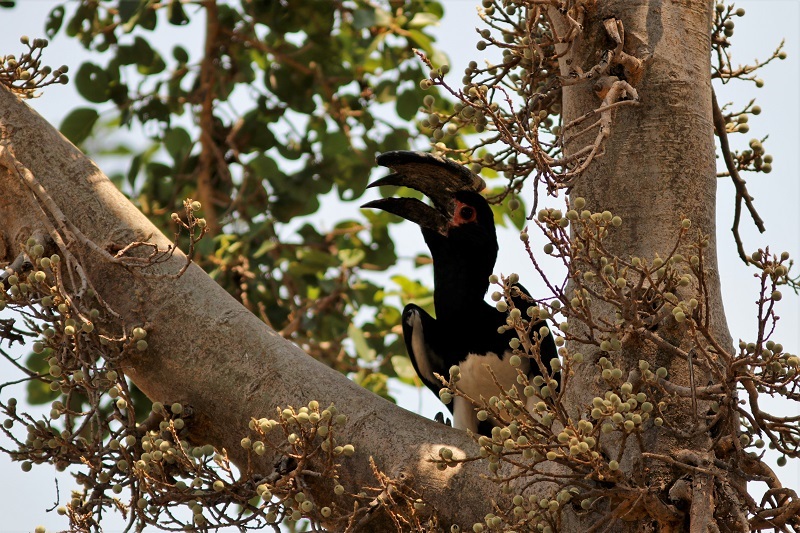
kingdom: Animalia
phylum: Chordata
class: Aves
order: Bucerotiformes
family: Bucerotidae
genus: Bycanistes
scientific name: Bycanistes bucinator
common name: Trumpeter hornbill
